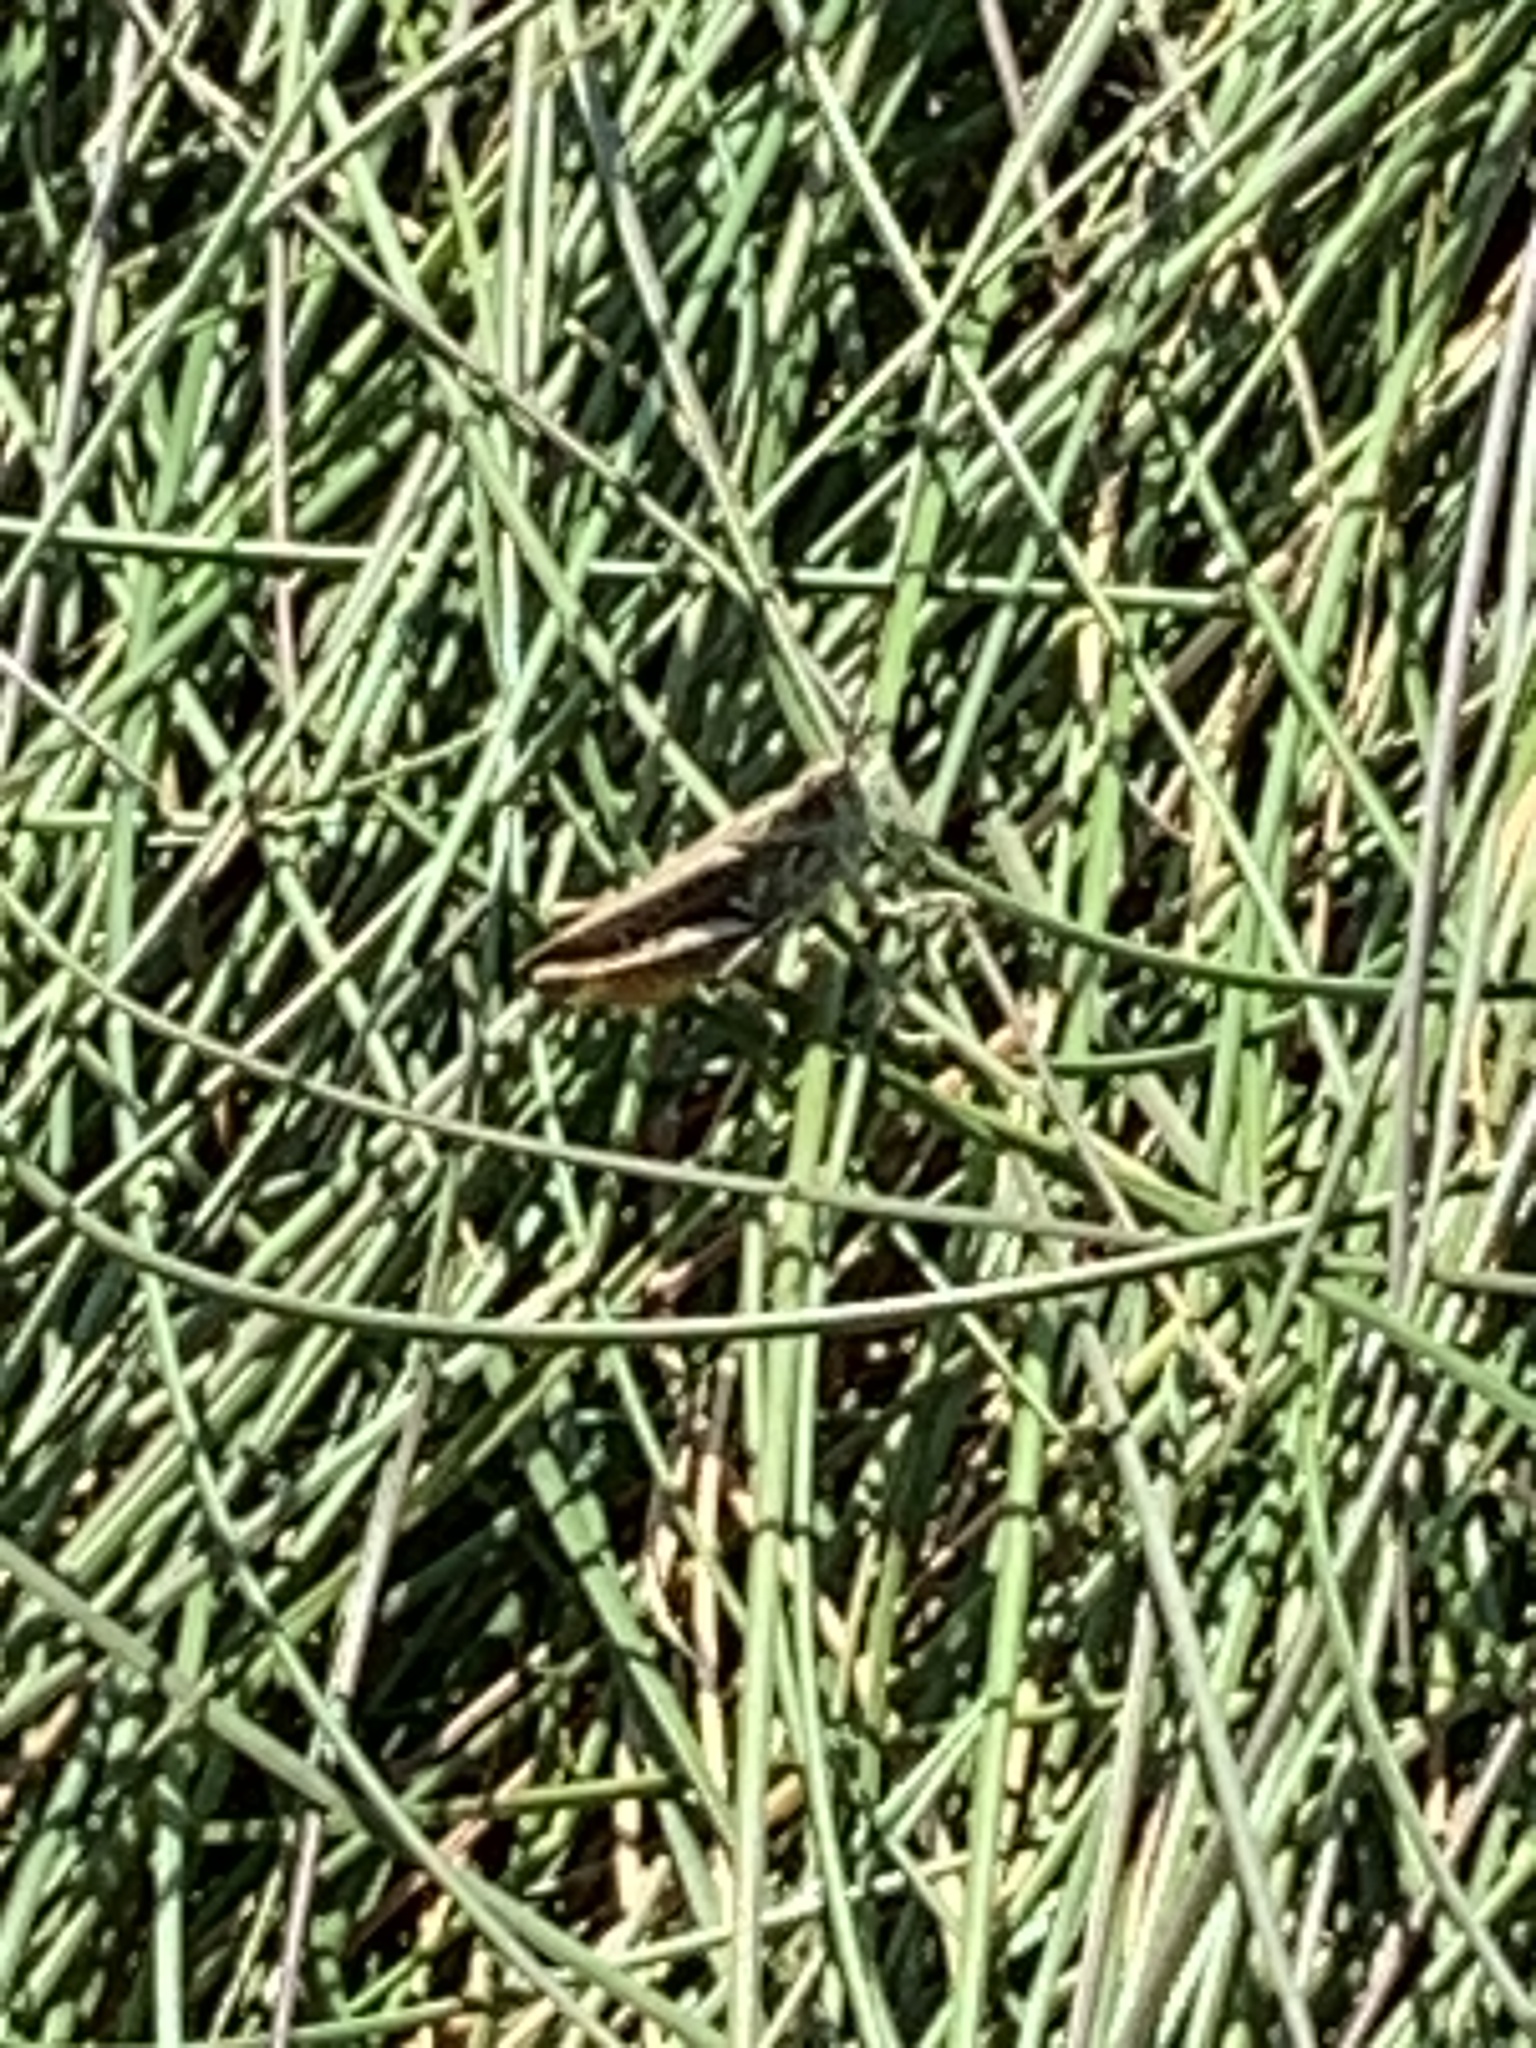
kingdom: Animalia
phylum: Arthropoda
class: Insecta
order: Orthoptera
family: Acrididae
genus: Chorthippus
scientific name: Chorthippus brunneus
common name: Field grasshopper
